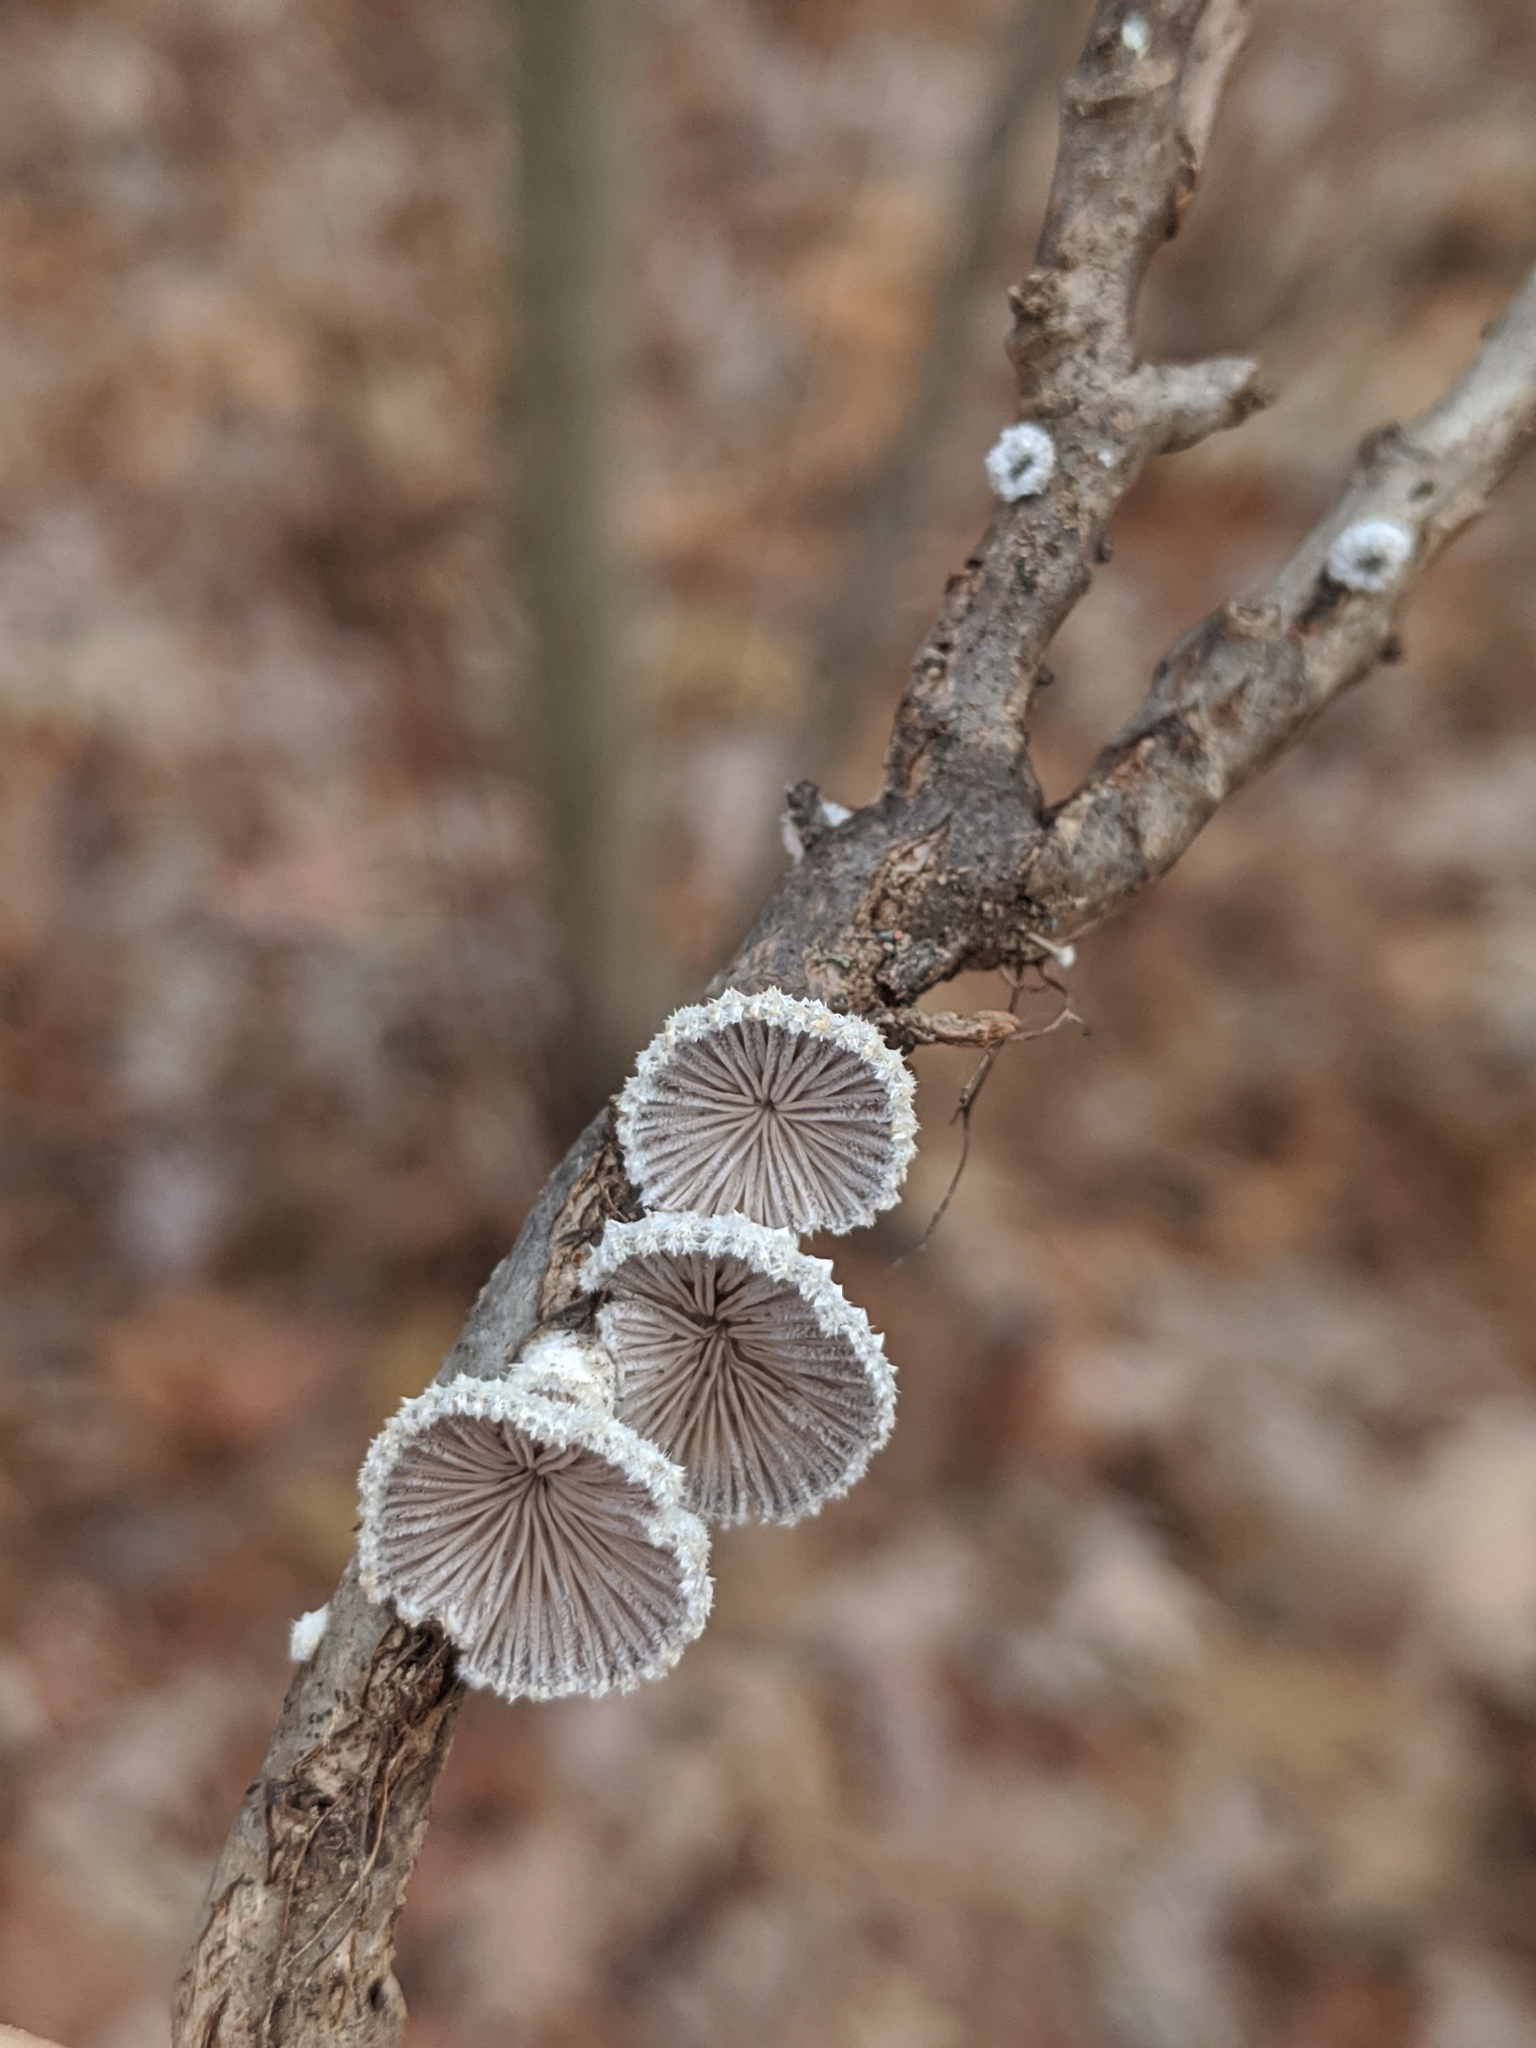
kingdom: Fungi
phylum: Basidiomycota
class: Agaricomycetes
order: Agaricales
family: Schizophyllaceae
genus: Schizophyllum
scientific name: Schizophyllum commune
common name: Common porecrust
